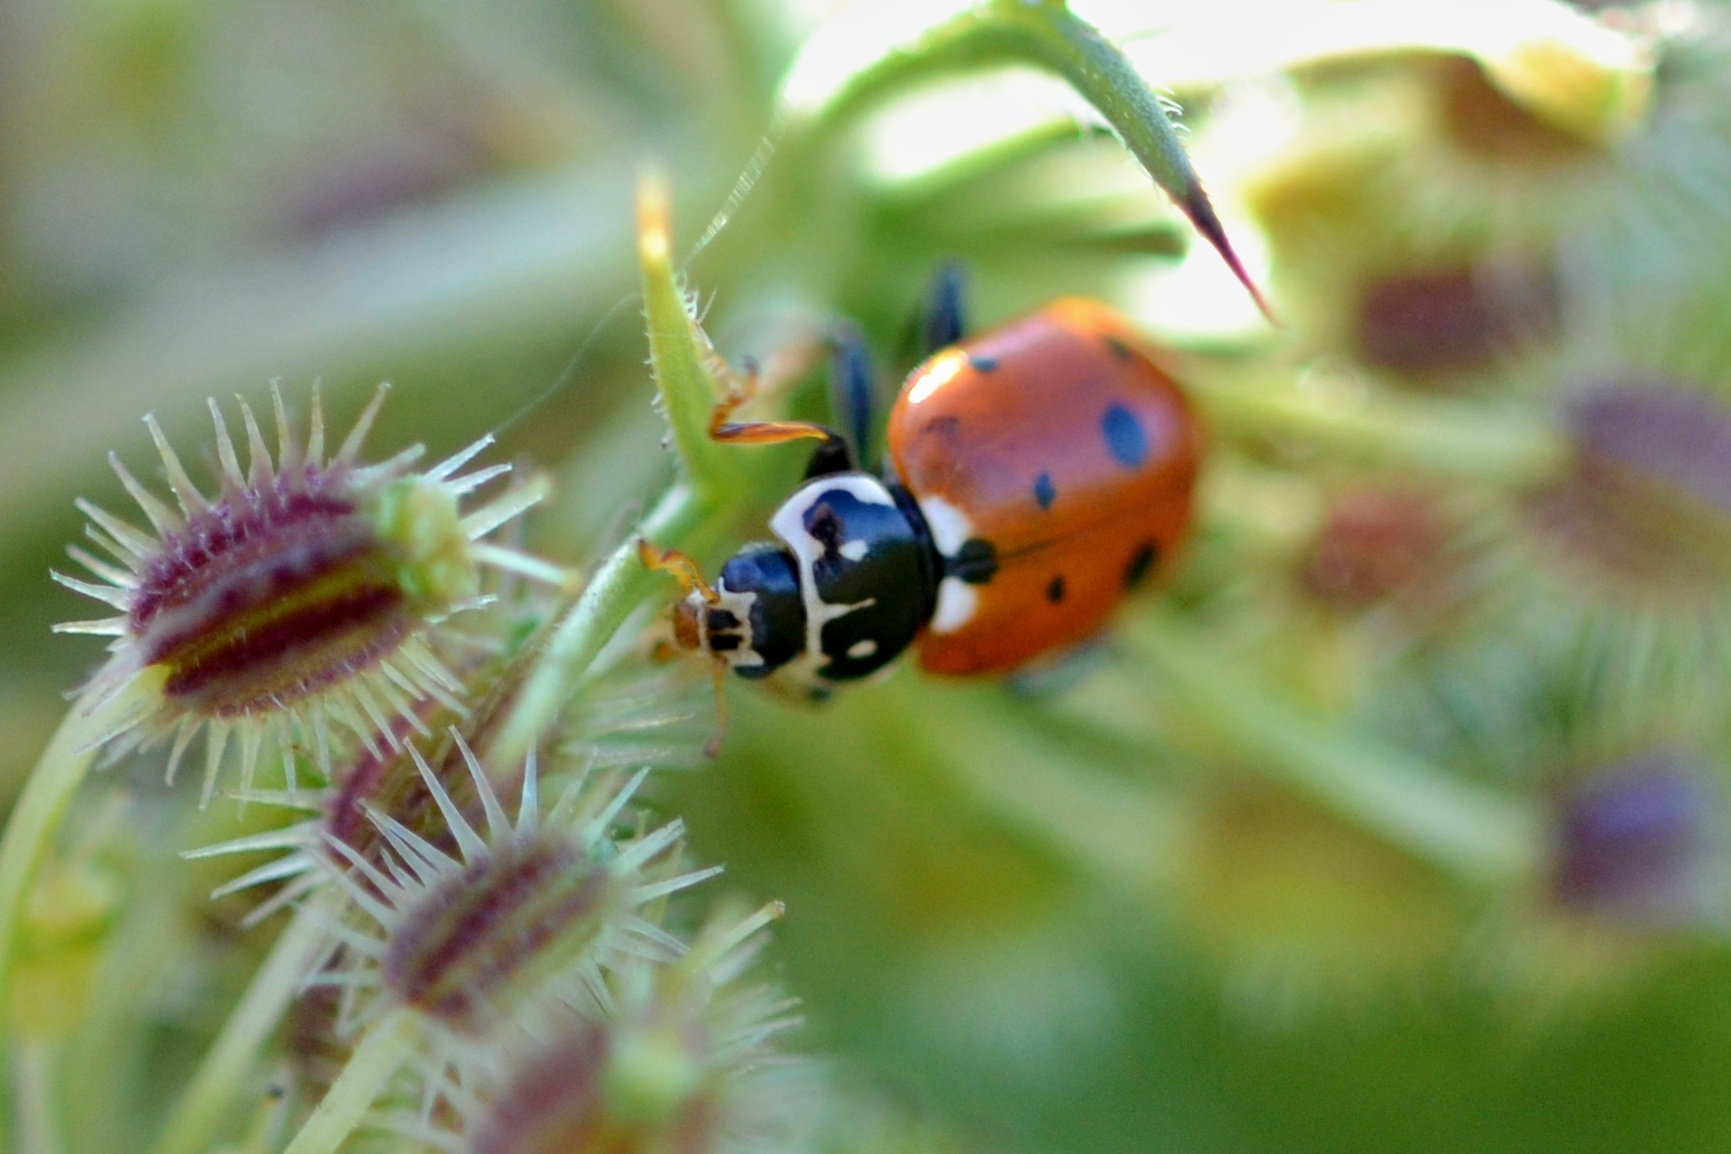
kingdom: Animalia
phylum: Arthropoda
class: Insecta
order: Coleoptera
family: Coccinellidae
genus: Hippodamia
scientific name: Hippodamia variegata
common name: Ladybird beetle
